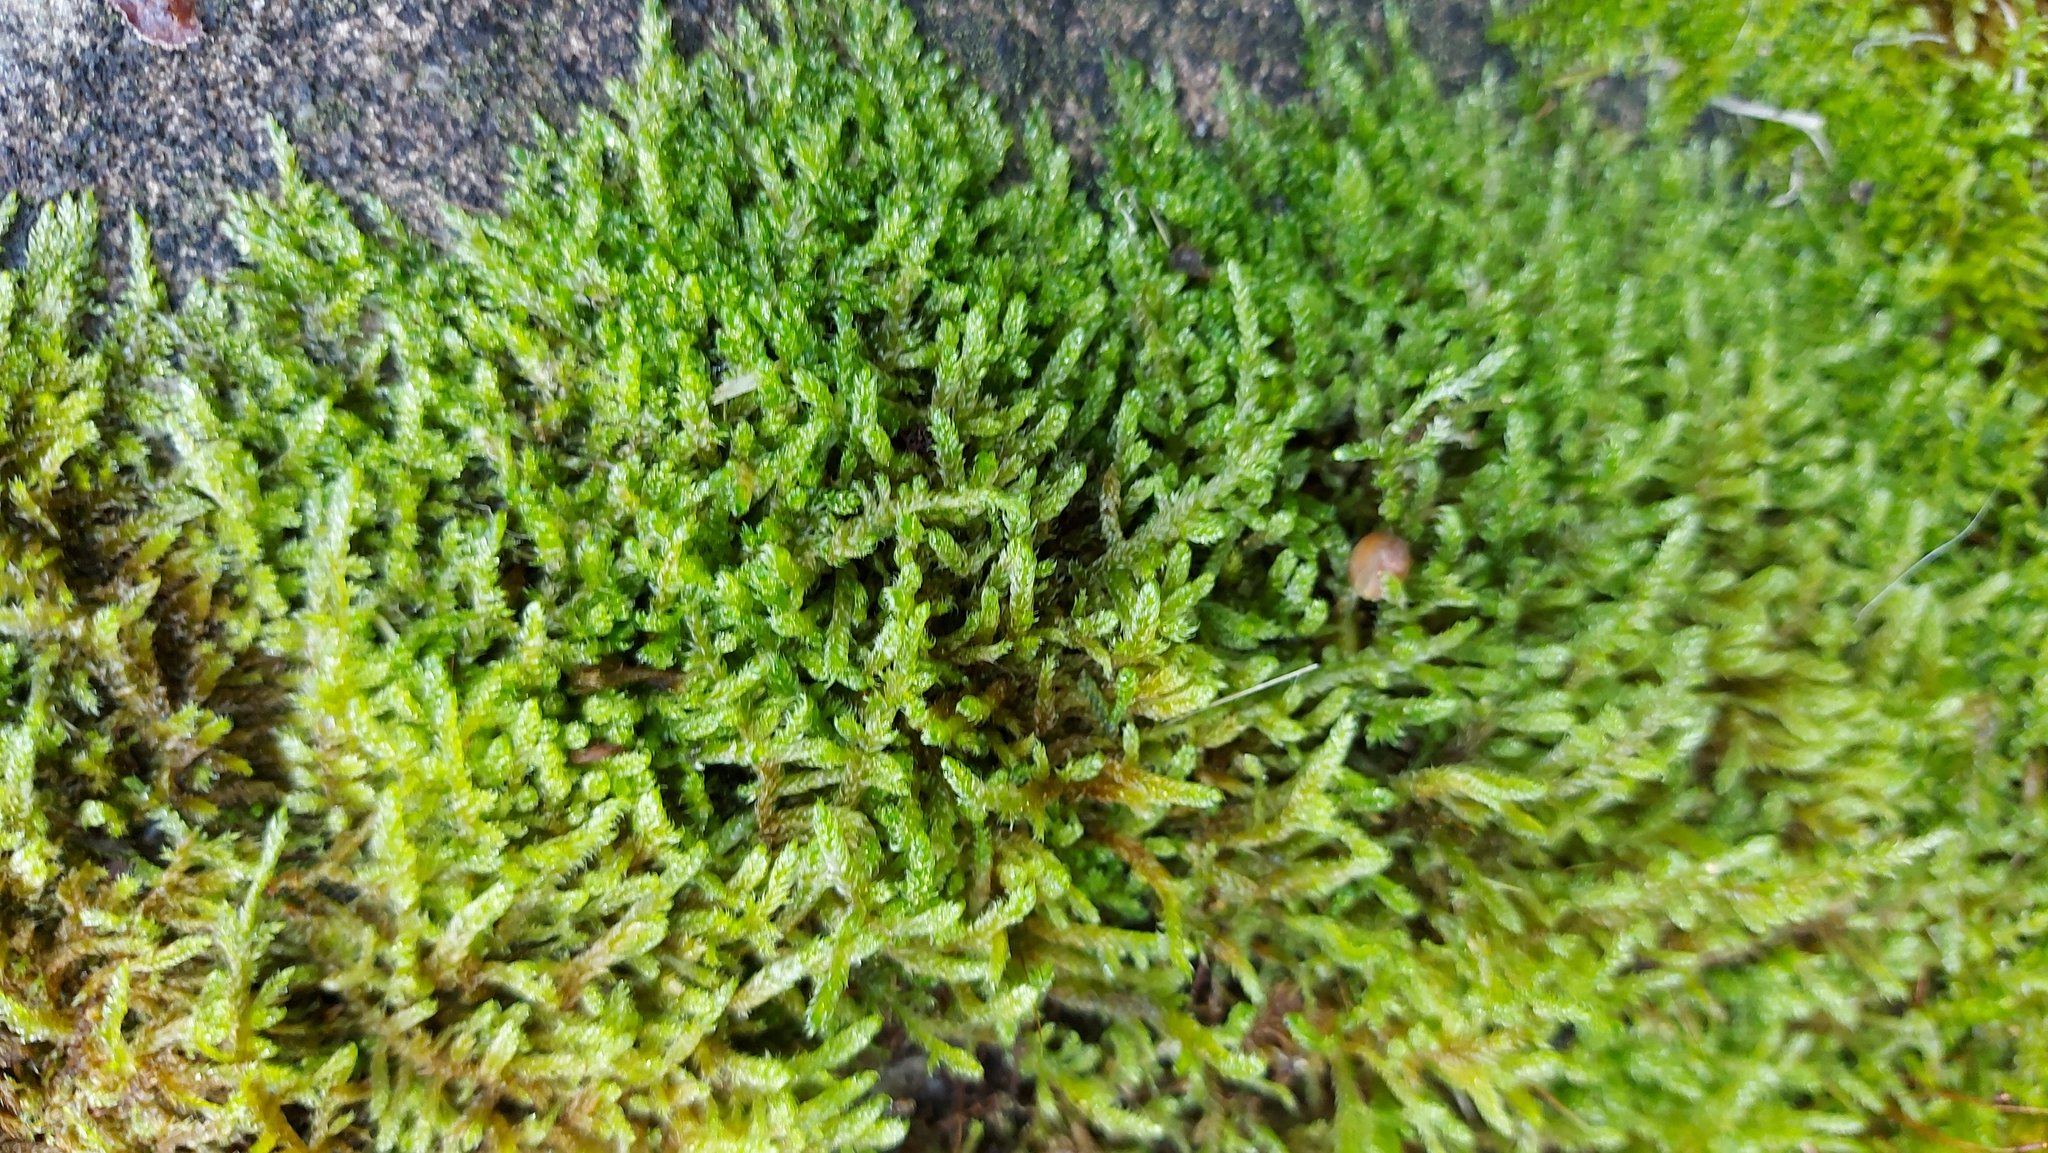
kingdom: Plantae
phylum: Bryophyta
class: Bryopsida
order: Hypnales
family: Hypnaceae
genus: Hypnum
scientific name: Hypnum cupressiforme
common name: Cypress-leaved plait-moss
